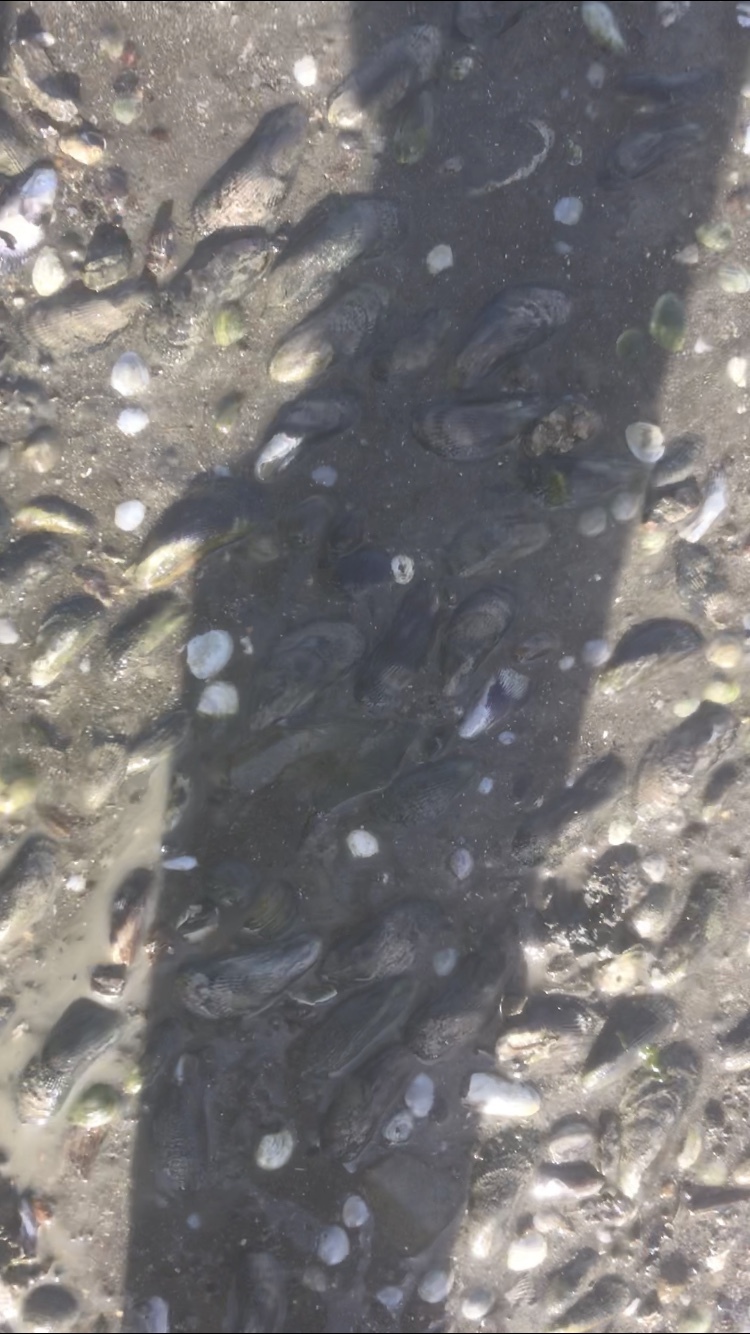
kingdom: Animalia
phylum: Mollusca
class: Bivalvia
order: Mytilida
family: Mytilidae
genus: Geukensia
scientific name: Geukensia demissa
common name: Ribbed mussel
